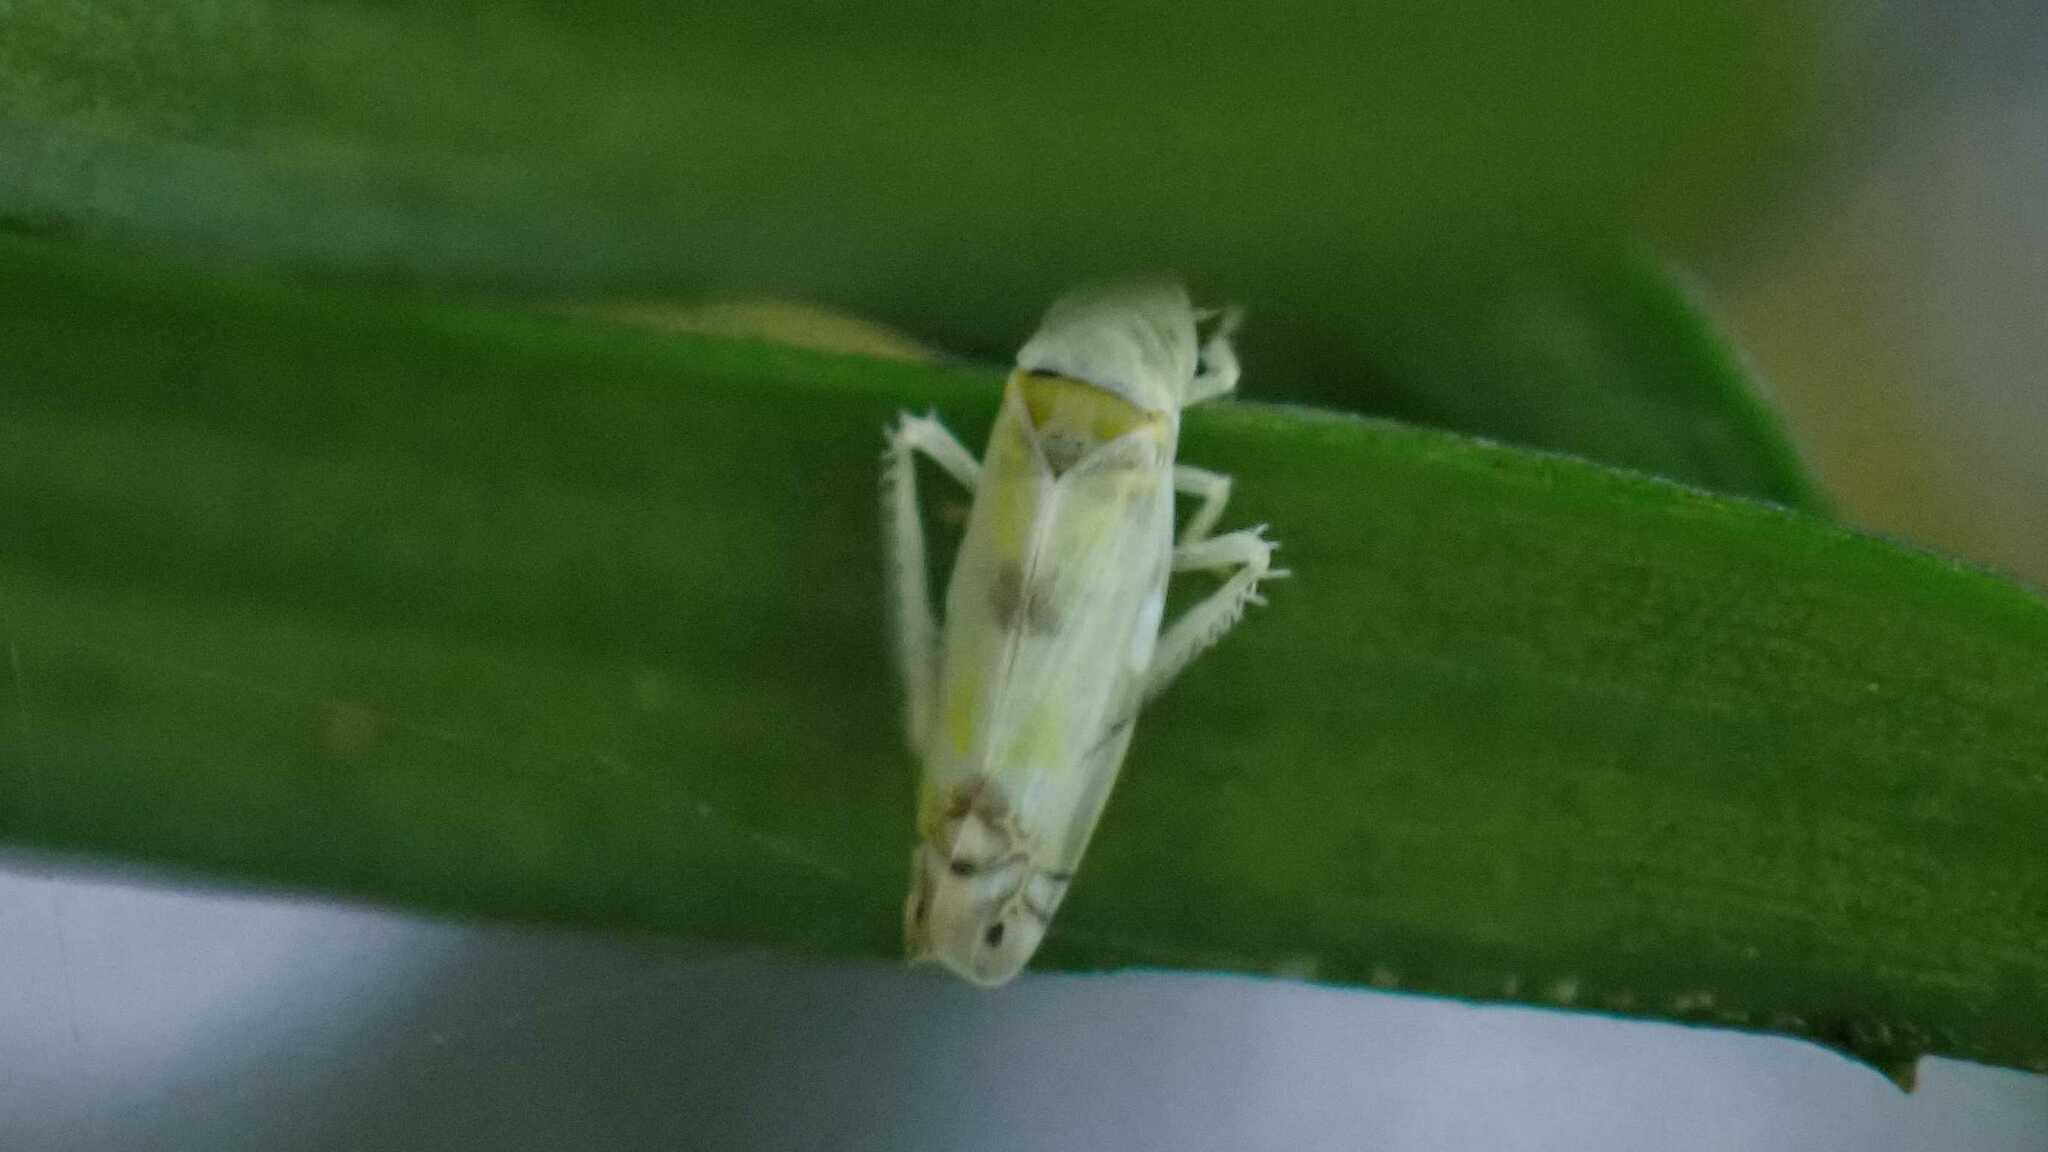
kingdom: Animalia
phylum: Arthropoda
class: Insecta
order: Hemiptera
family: Cicadellidae
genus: Zyginella
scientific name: Zyginella pulchra
